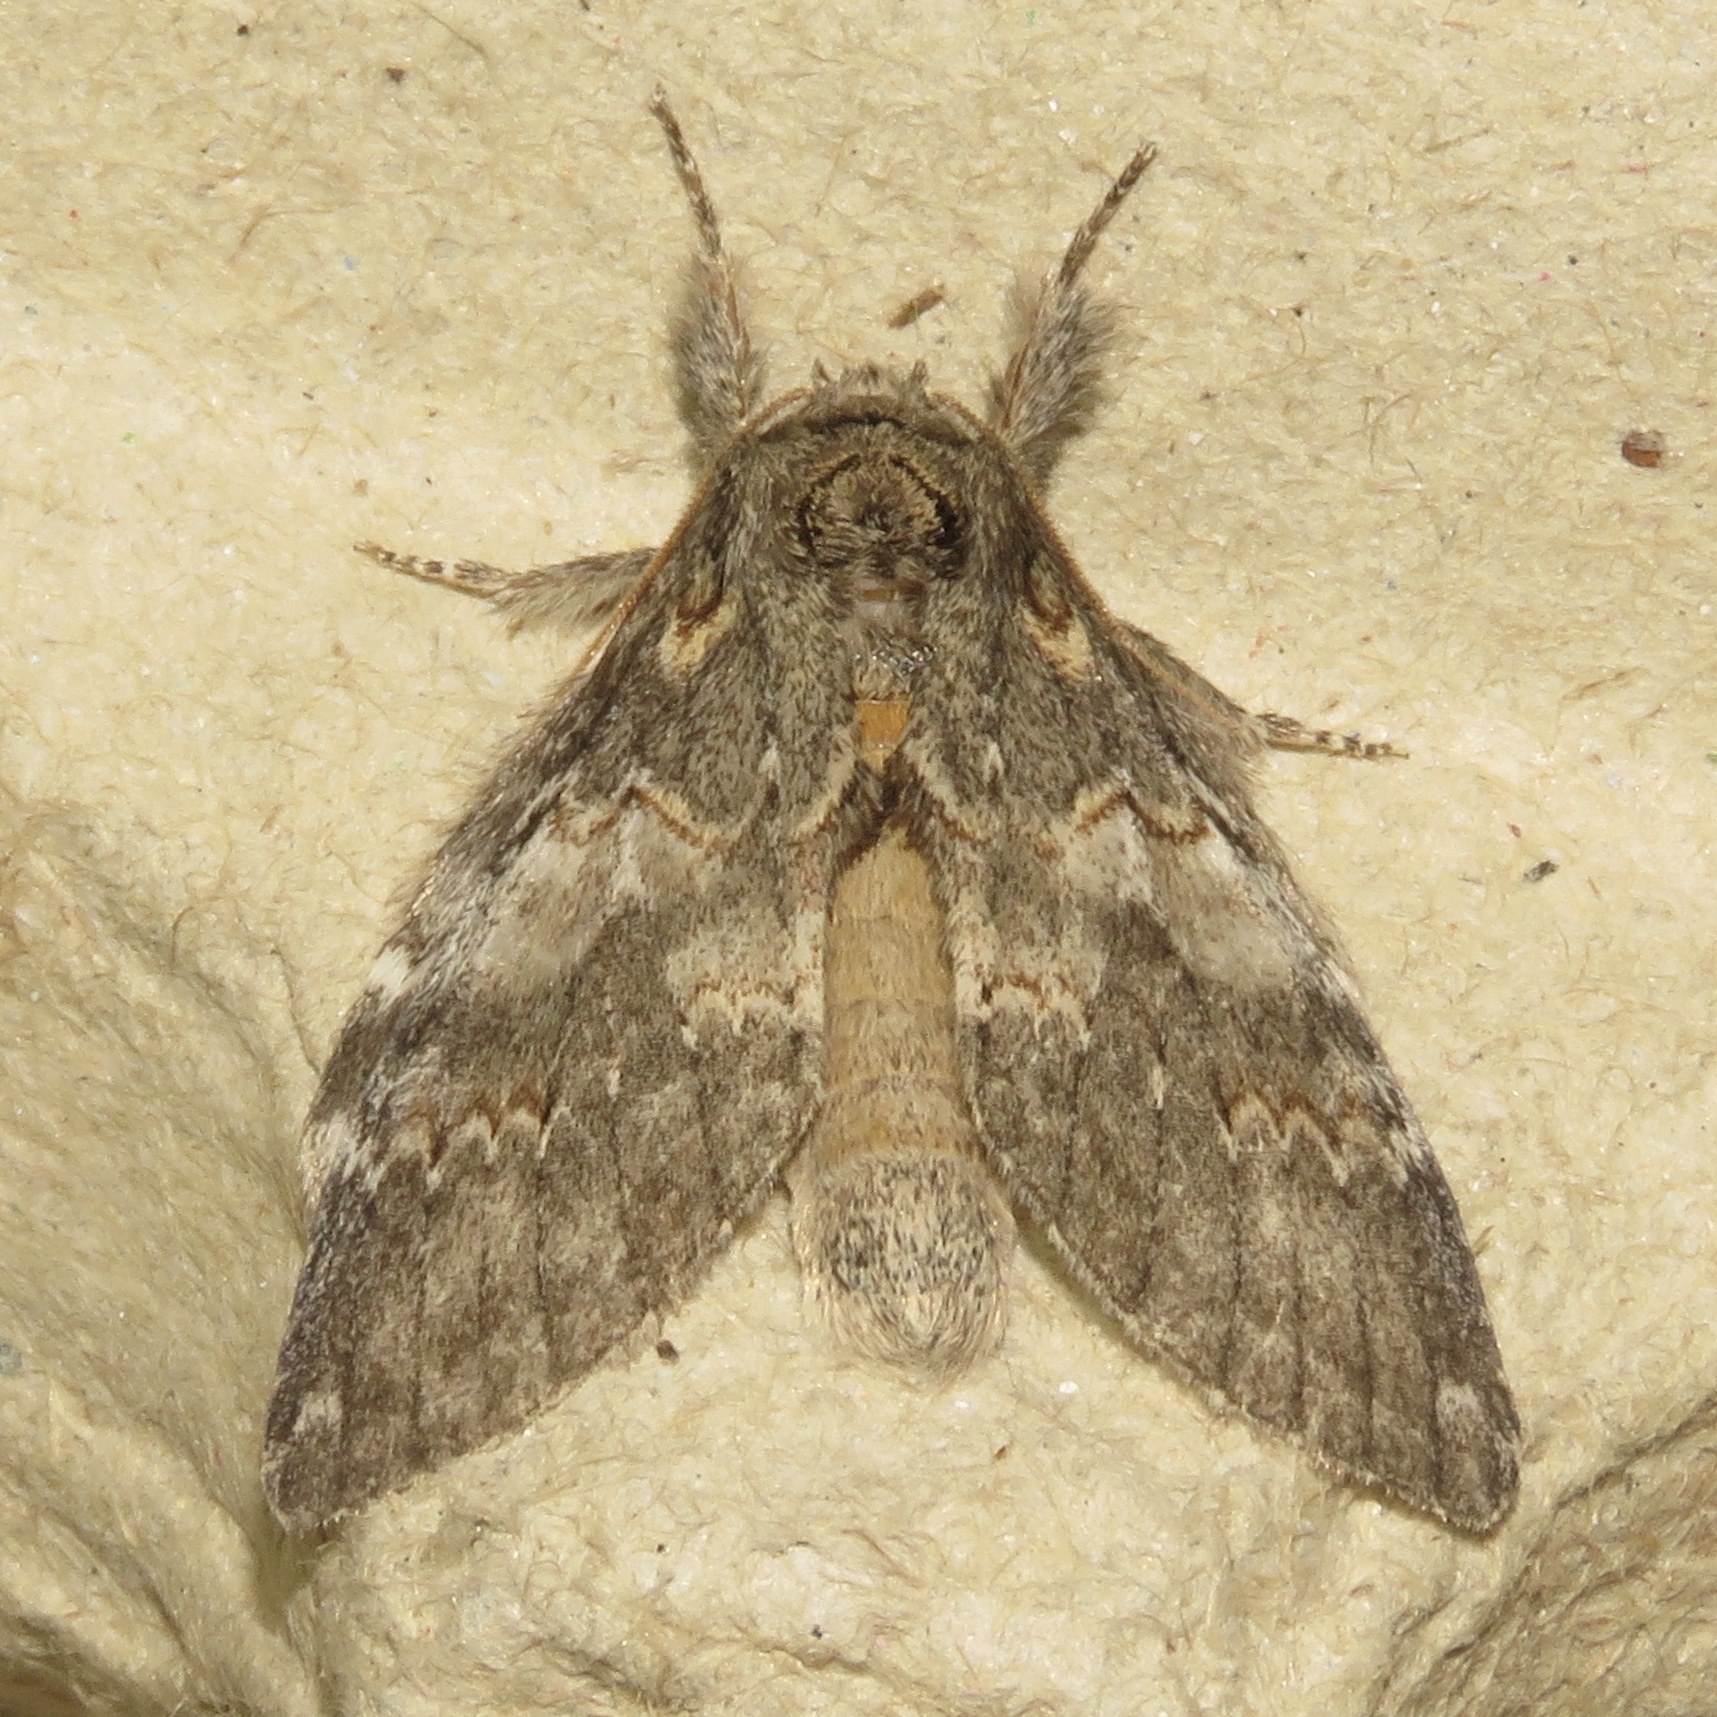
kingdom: Animalia
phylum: Arthropoda
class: Insecta
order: Lepidoptera
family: Notodontidae
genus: Peridea
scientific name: Peridea angulosa
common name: Angulose prominent
